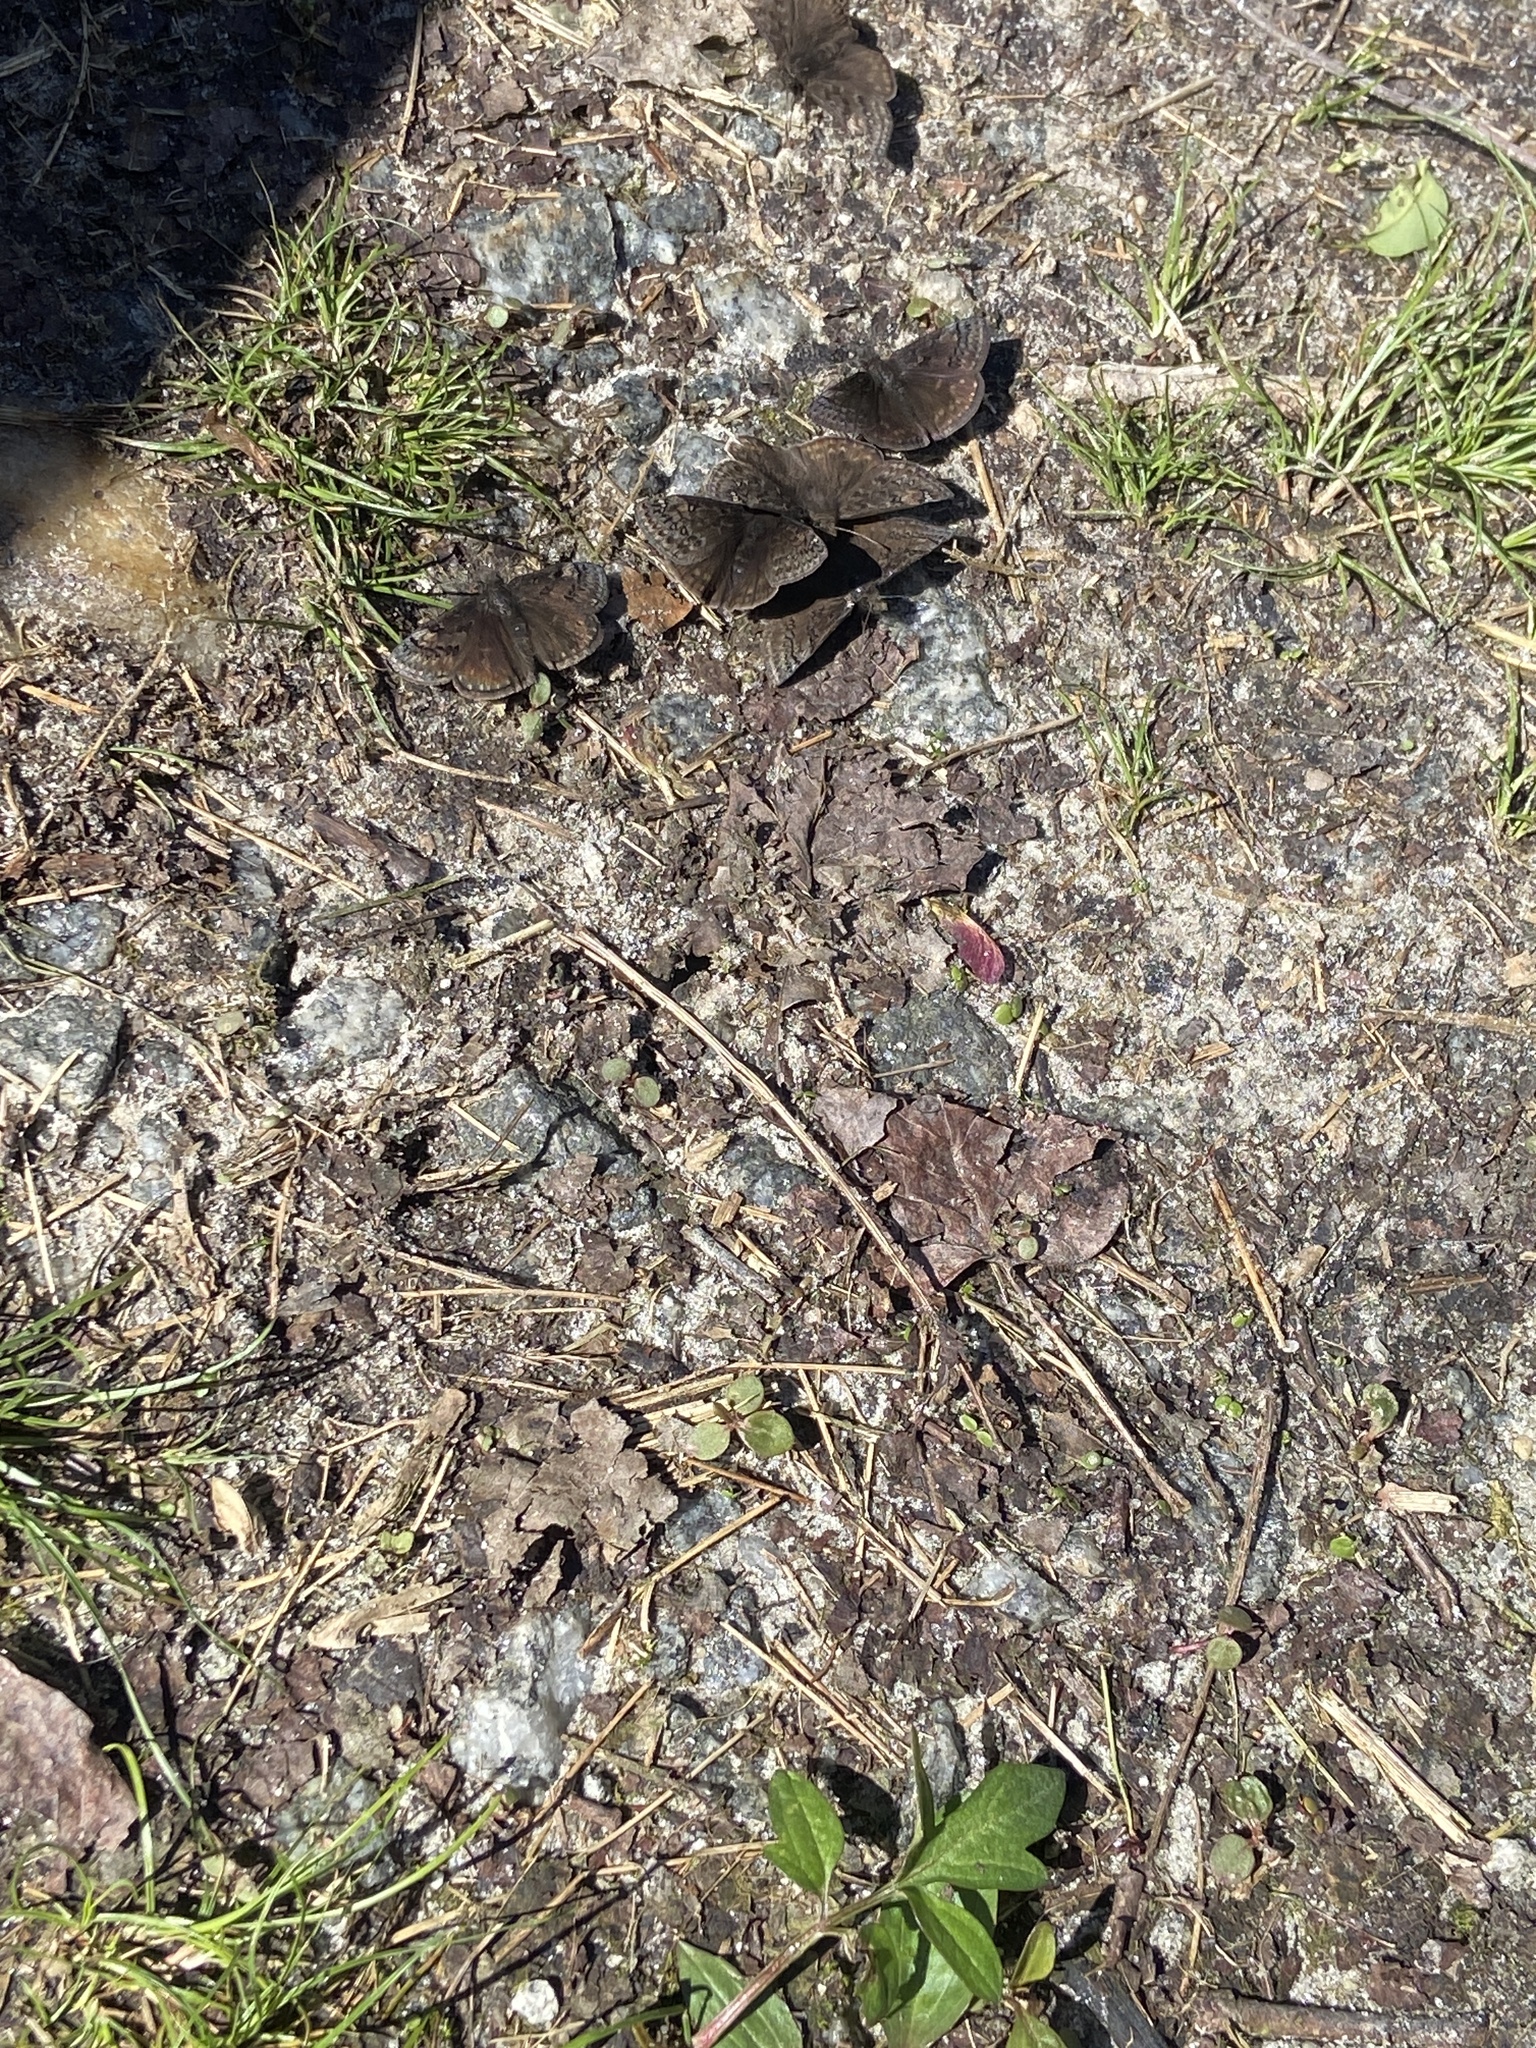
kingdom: Animalia
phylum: Arthropoda
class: Insecta
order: Lepidoptera
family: Hesperiidae
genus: Erynnis
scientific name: Erynnis juvenalis
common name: Juvenal's duskywing
